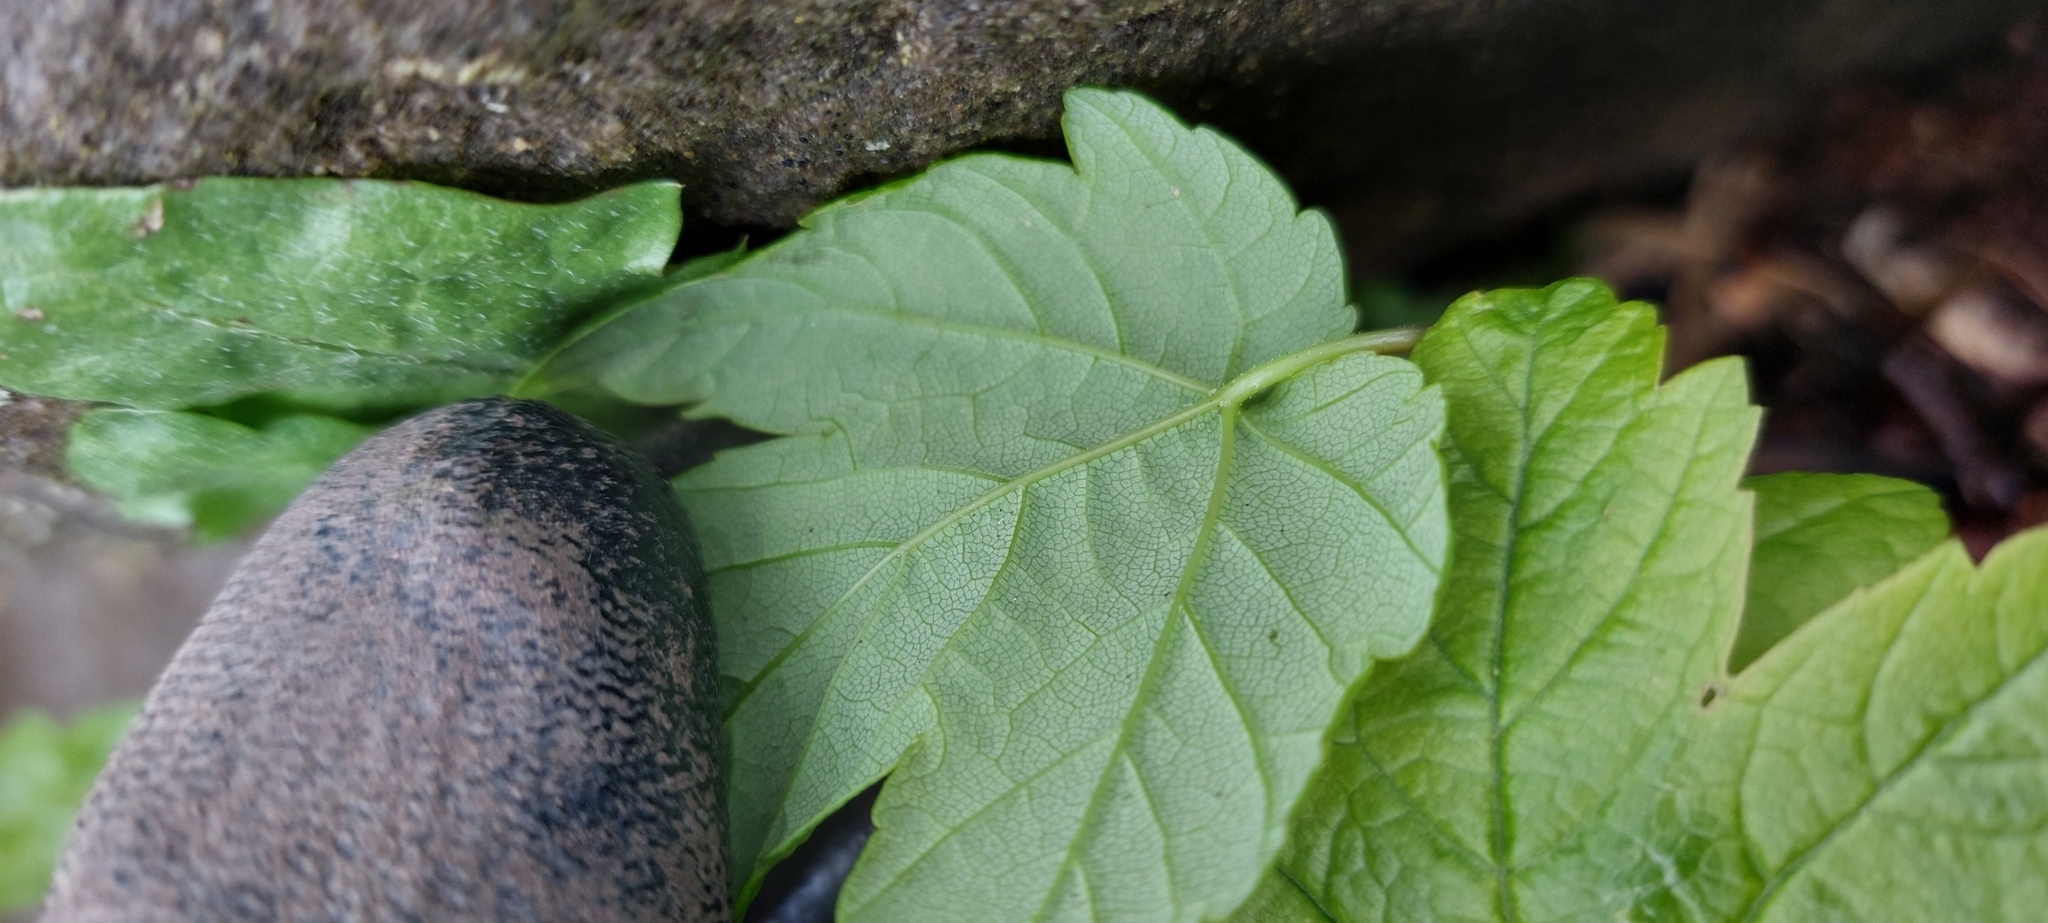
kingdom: Plantae
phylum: Tracheophyta
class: Magnoliopsida
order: Sapindales
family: Sapindaceae
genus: Acer
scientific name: Acer pseudoplatanus
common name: Sycamore
